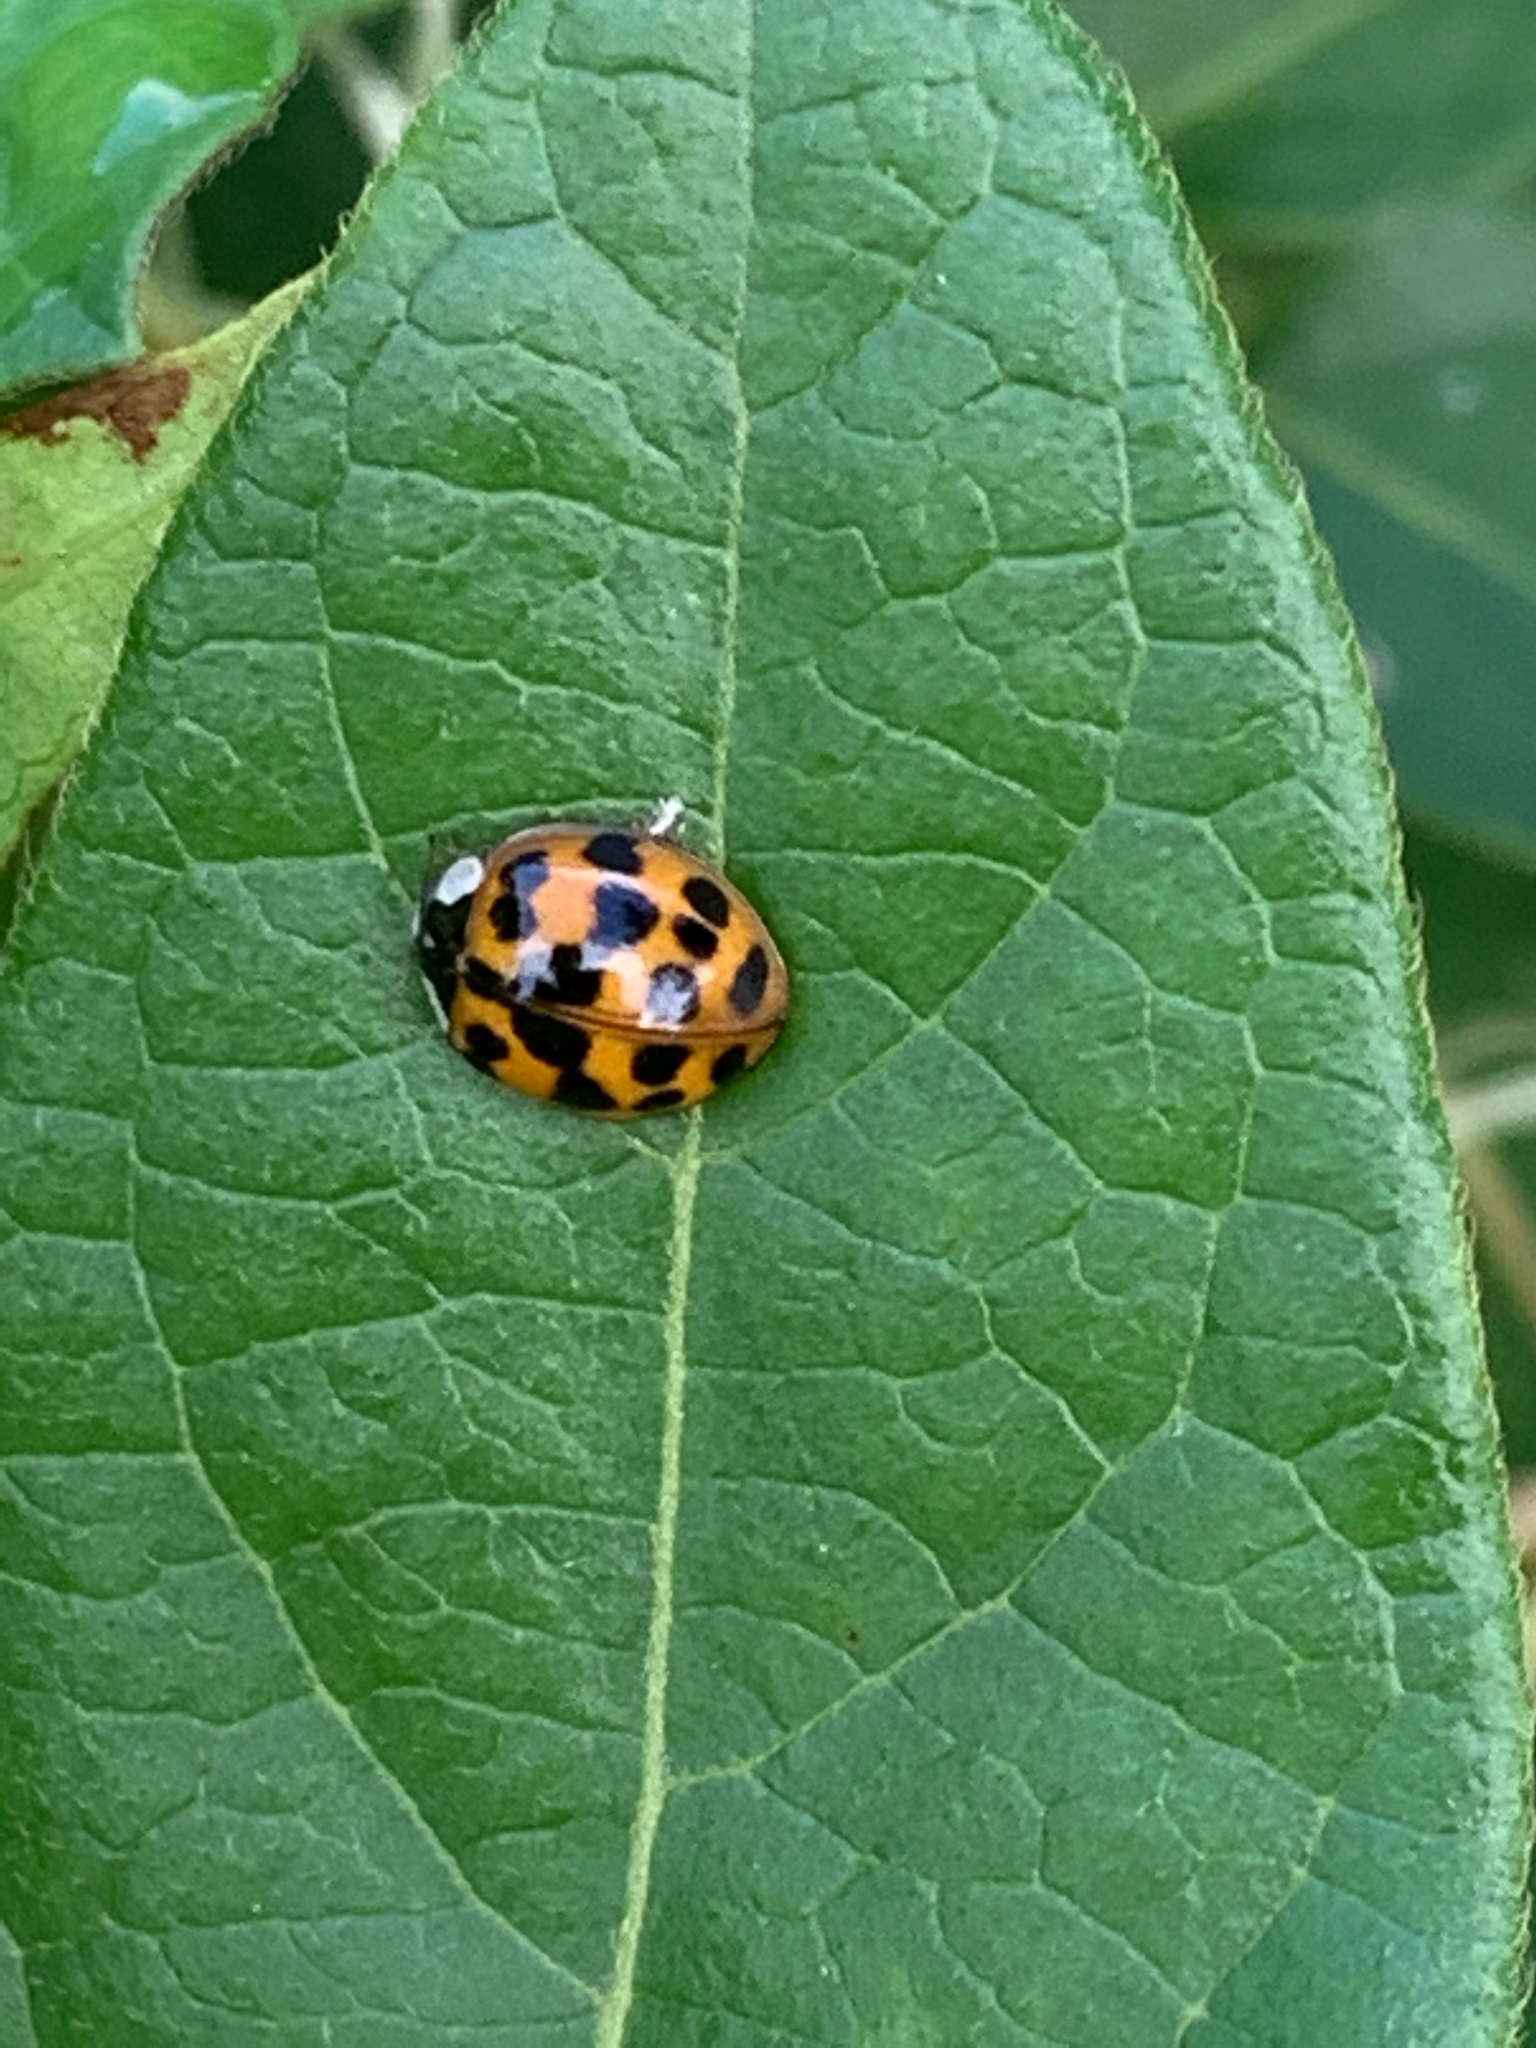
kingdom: Animalia
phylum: Arthropoda
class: Insecta
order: Coleoptera
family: Coccinellidae
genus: Harmonia
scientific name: Harmonia axyridis
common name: Harlequin ladybird
